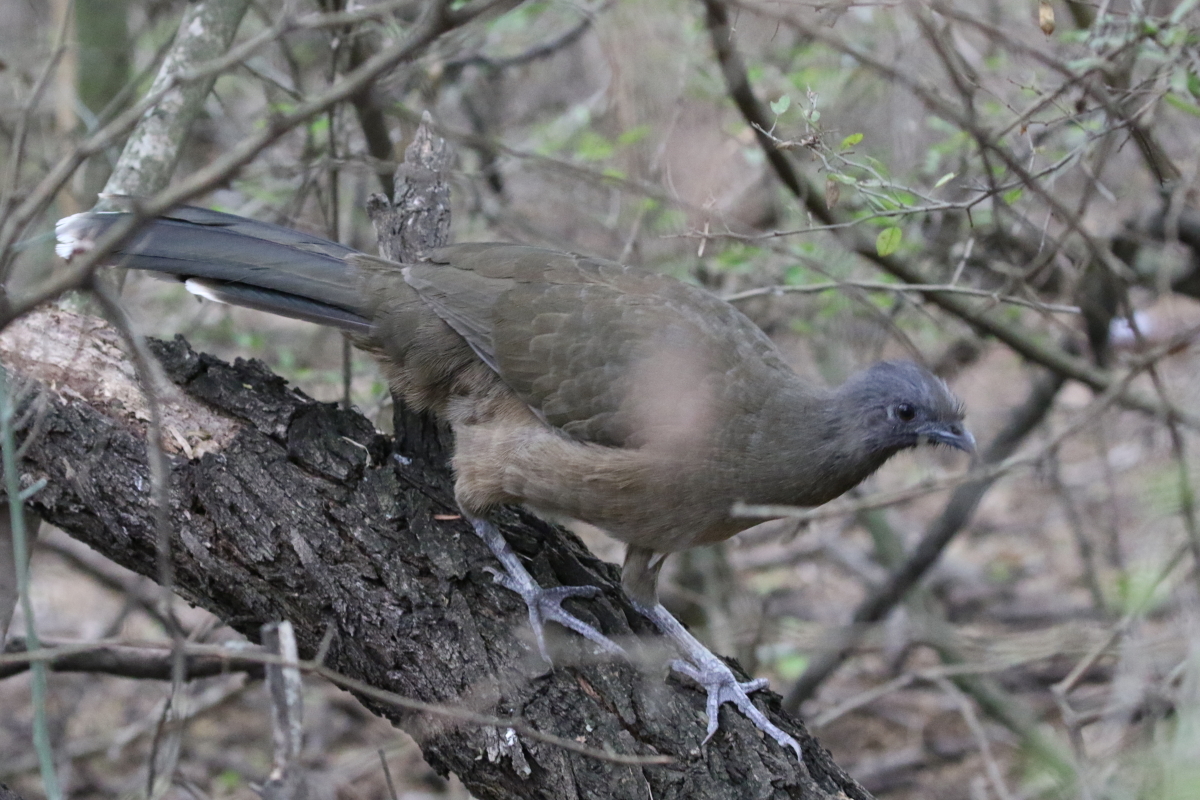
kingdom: Animalia
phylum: Chordata
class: Aves
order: Galliformes
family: Cracidae
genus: Ortalis
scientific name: Ortalis vetula
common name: Plain chachalaca
